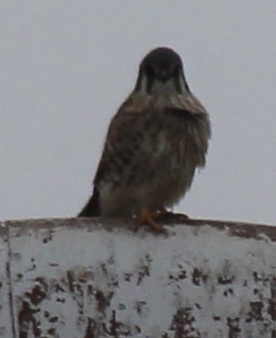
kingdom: Animalia
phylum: Chordata
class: Aves
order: Falconiformes
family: Falconidae
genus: Falco
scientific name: Falco sparverius
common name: American kestrel
